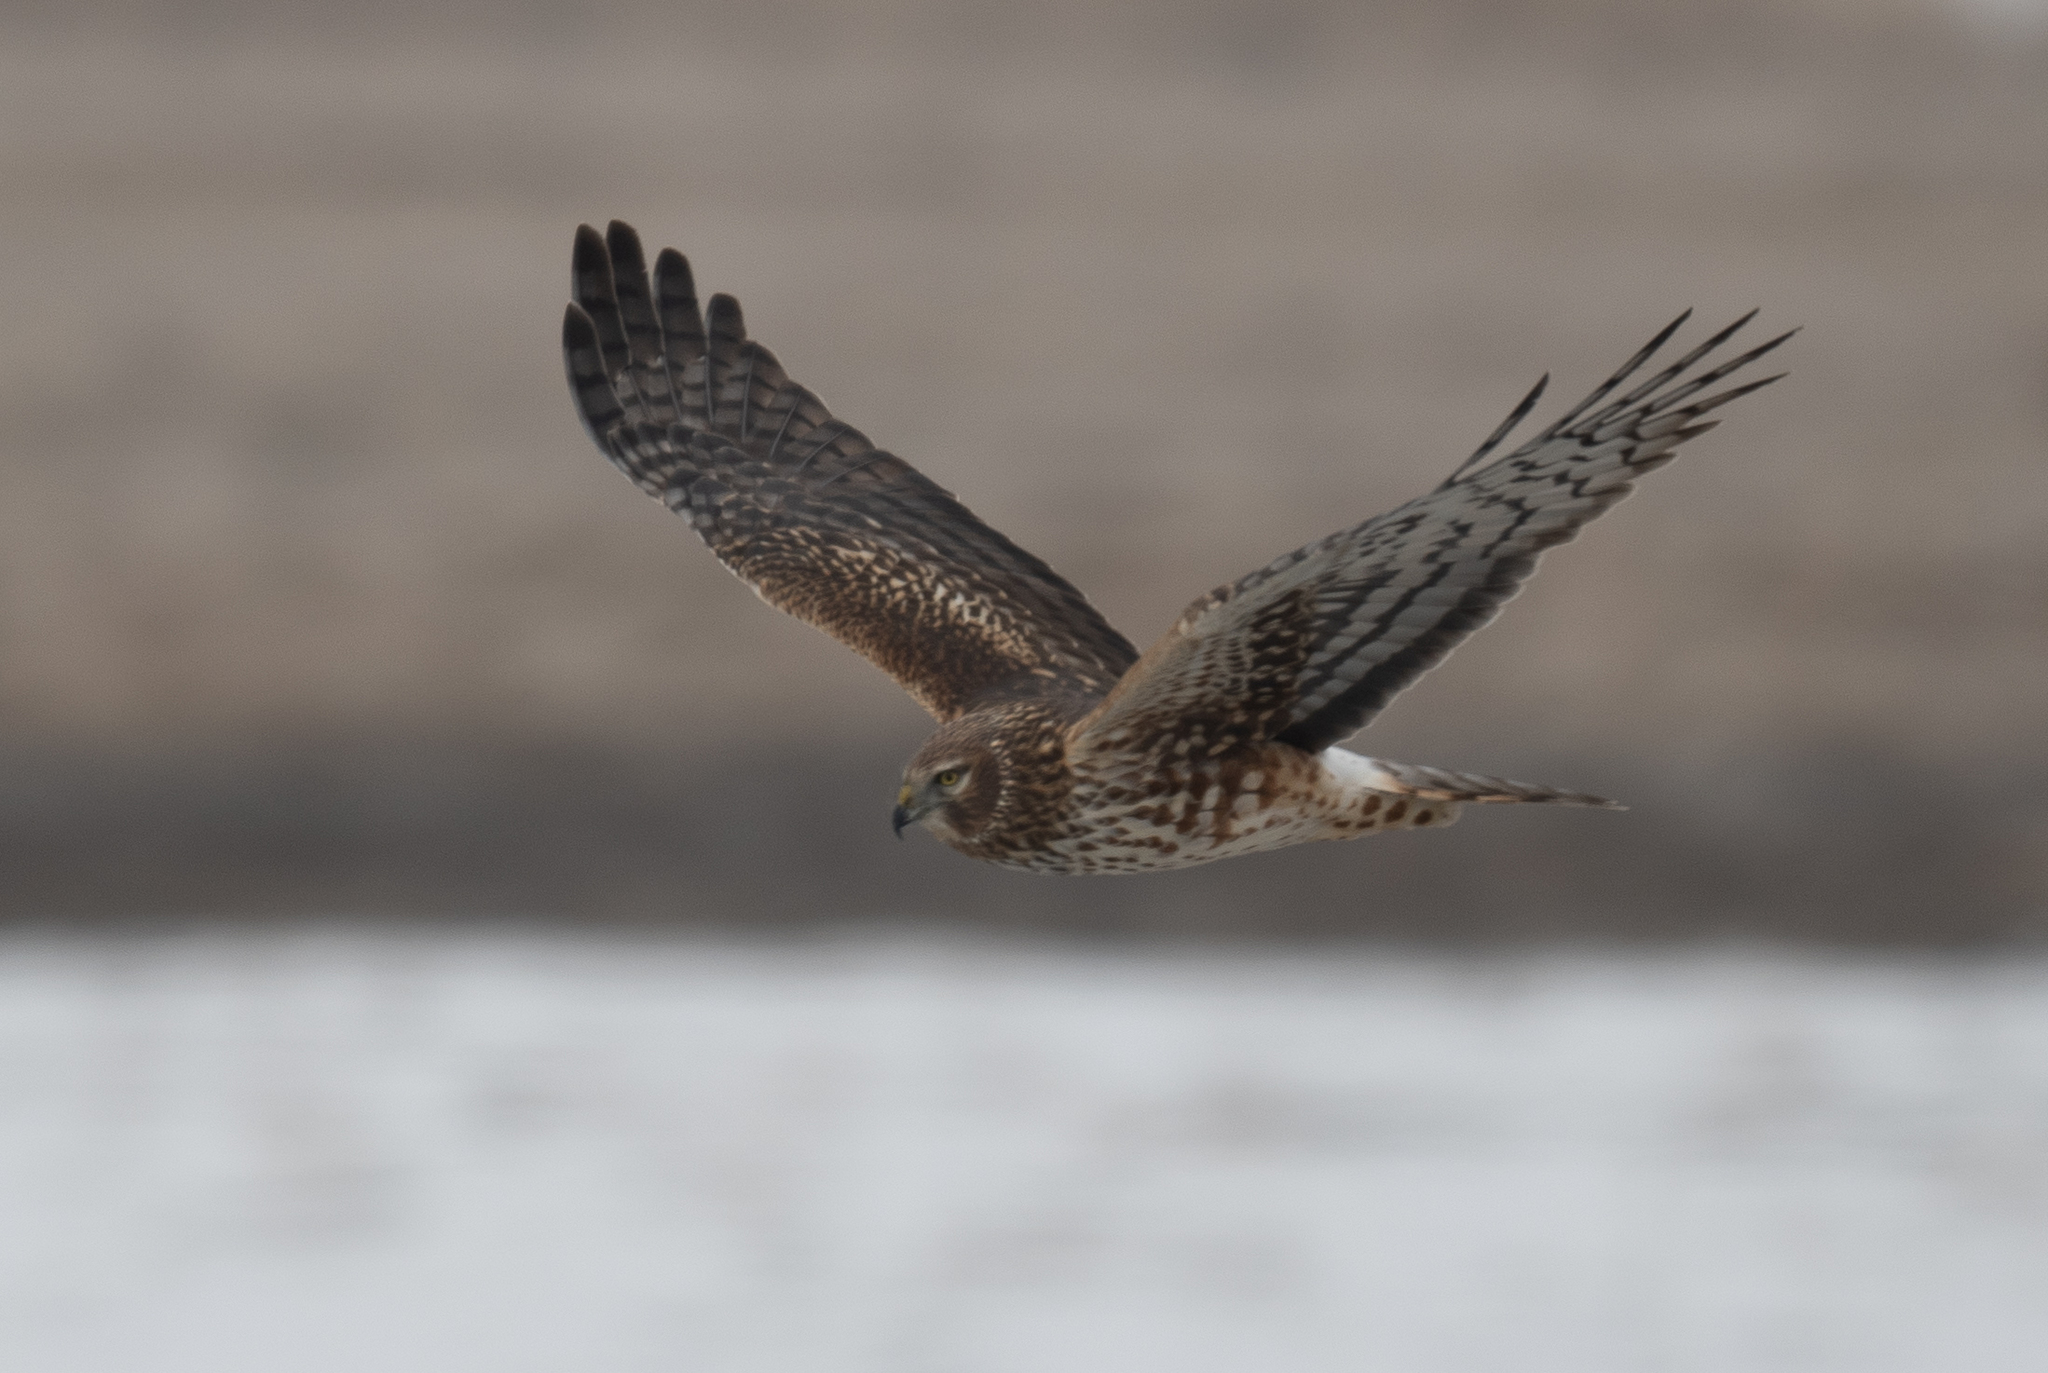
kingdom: Animalia
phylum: Chordata
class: Aves
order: Accipitriformes
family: Accipitridae
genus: Circus
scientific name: Circus cyaneus
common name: Hen harrier
